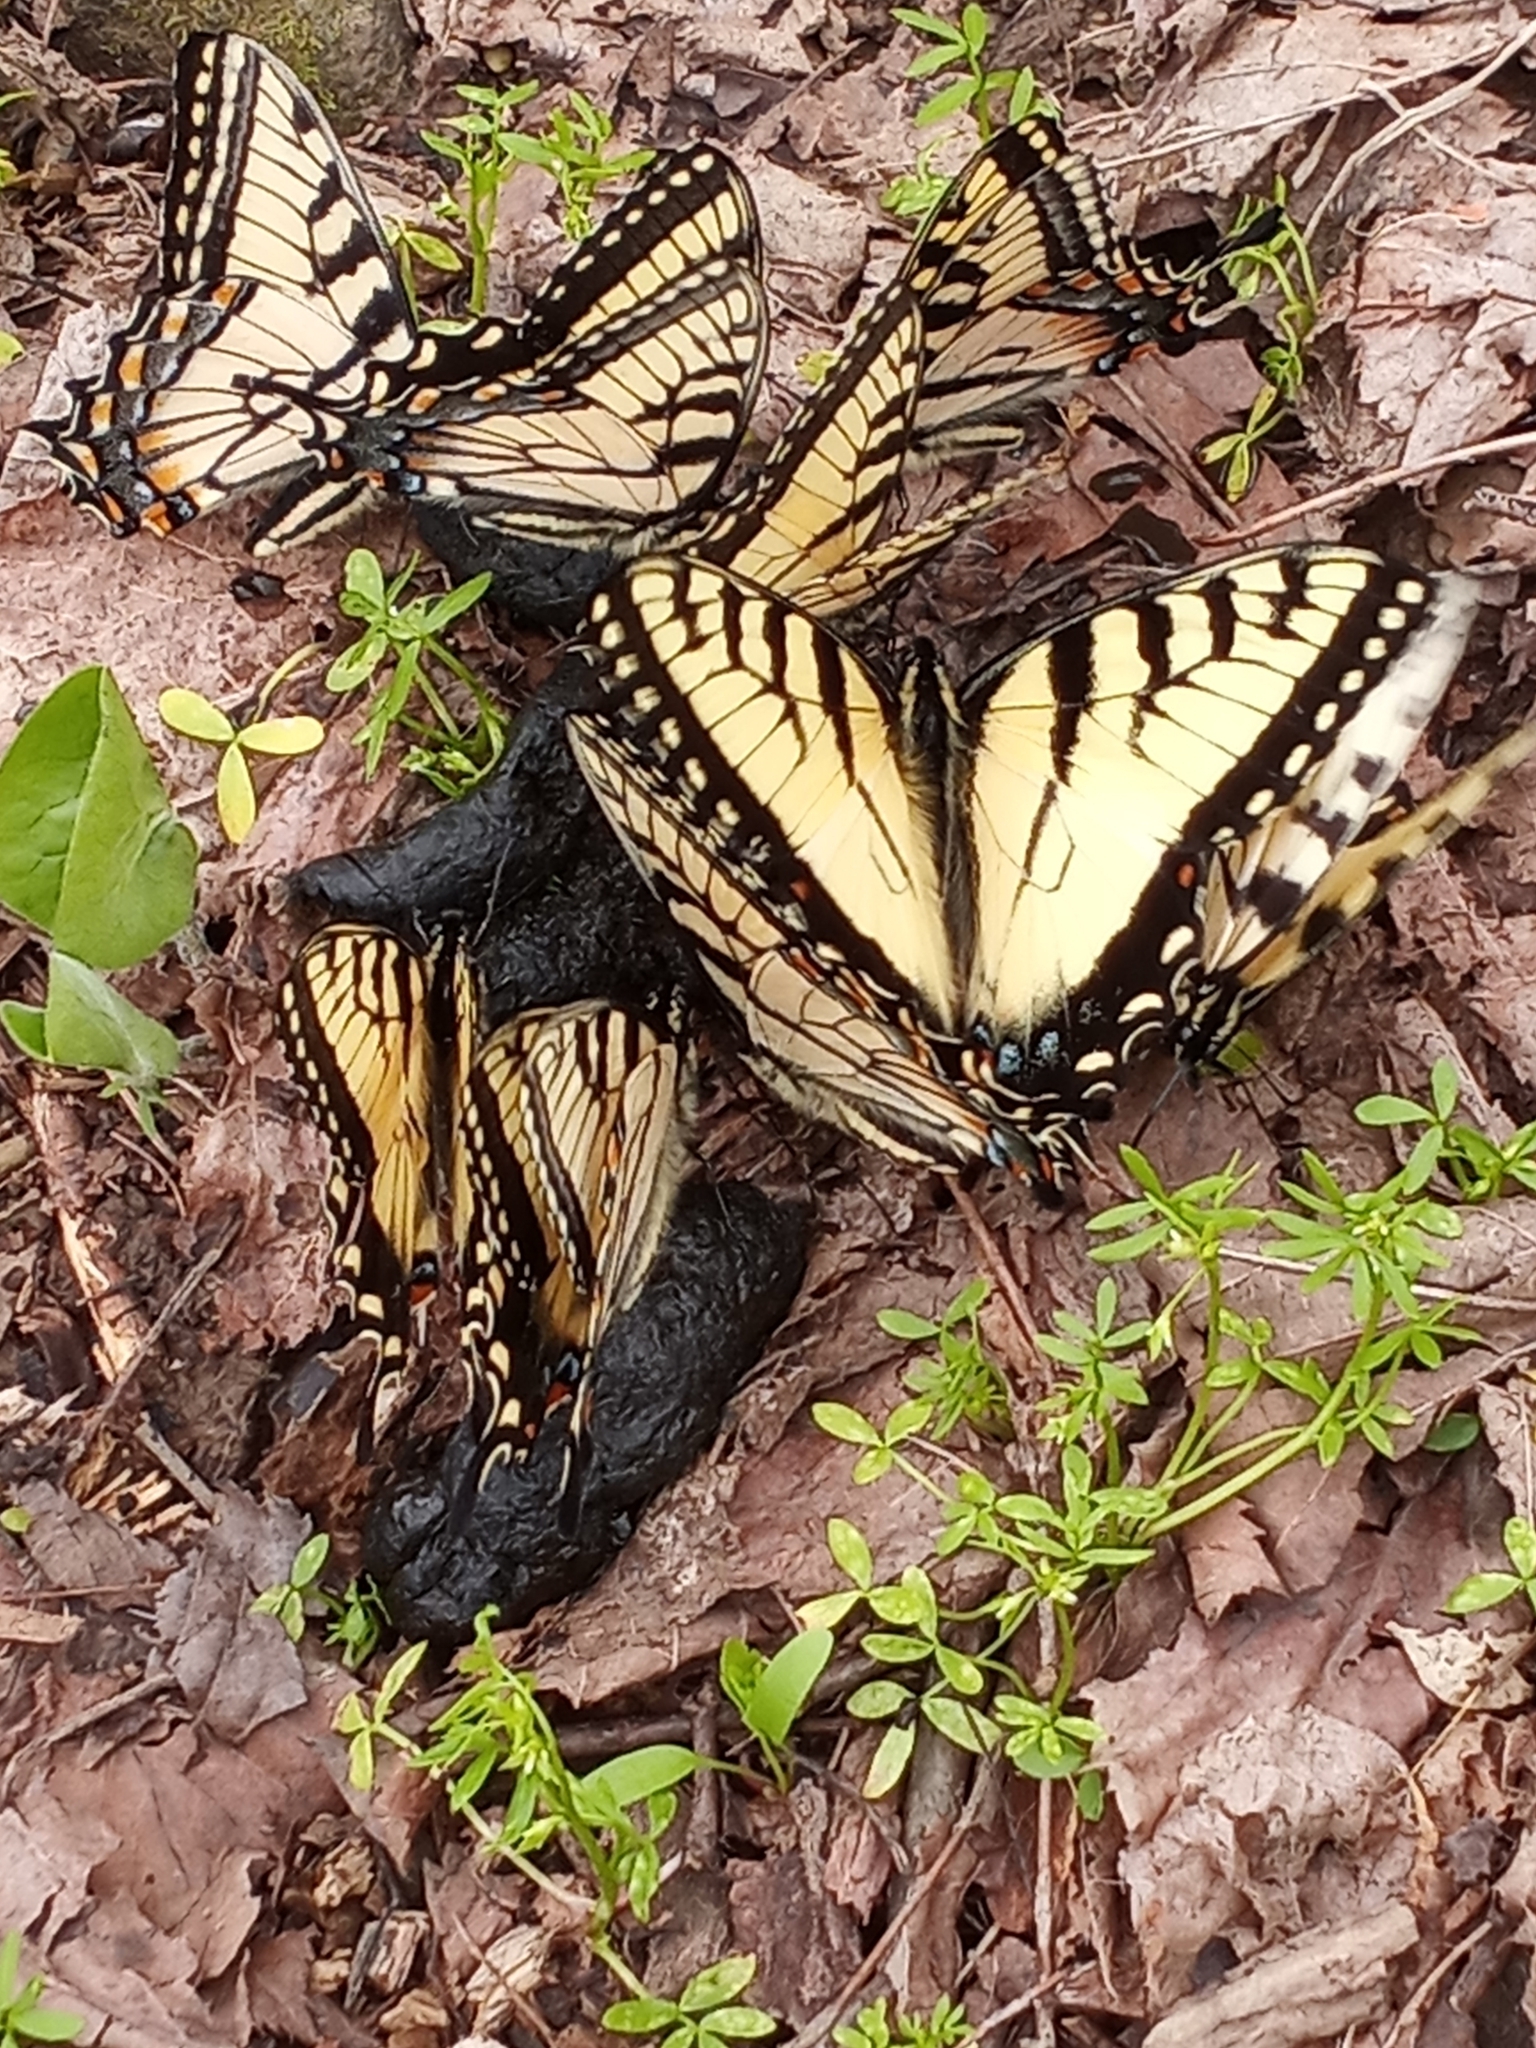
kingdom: Animalia
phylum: Arthropoda
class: Insecta
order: Lepidoptera
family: Papilionidae
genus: Papilio
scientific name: Papilio glaucus
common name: Tiger swallowtail
